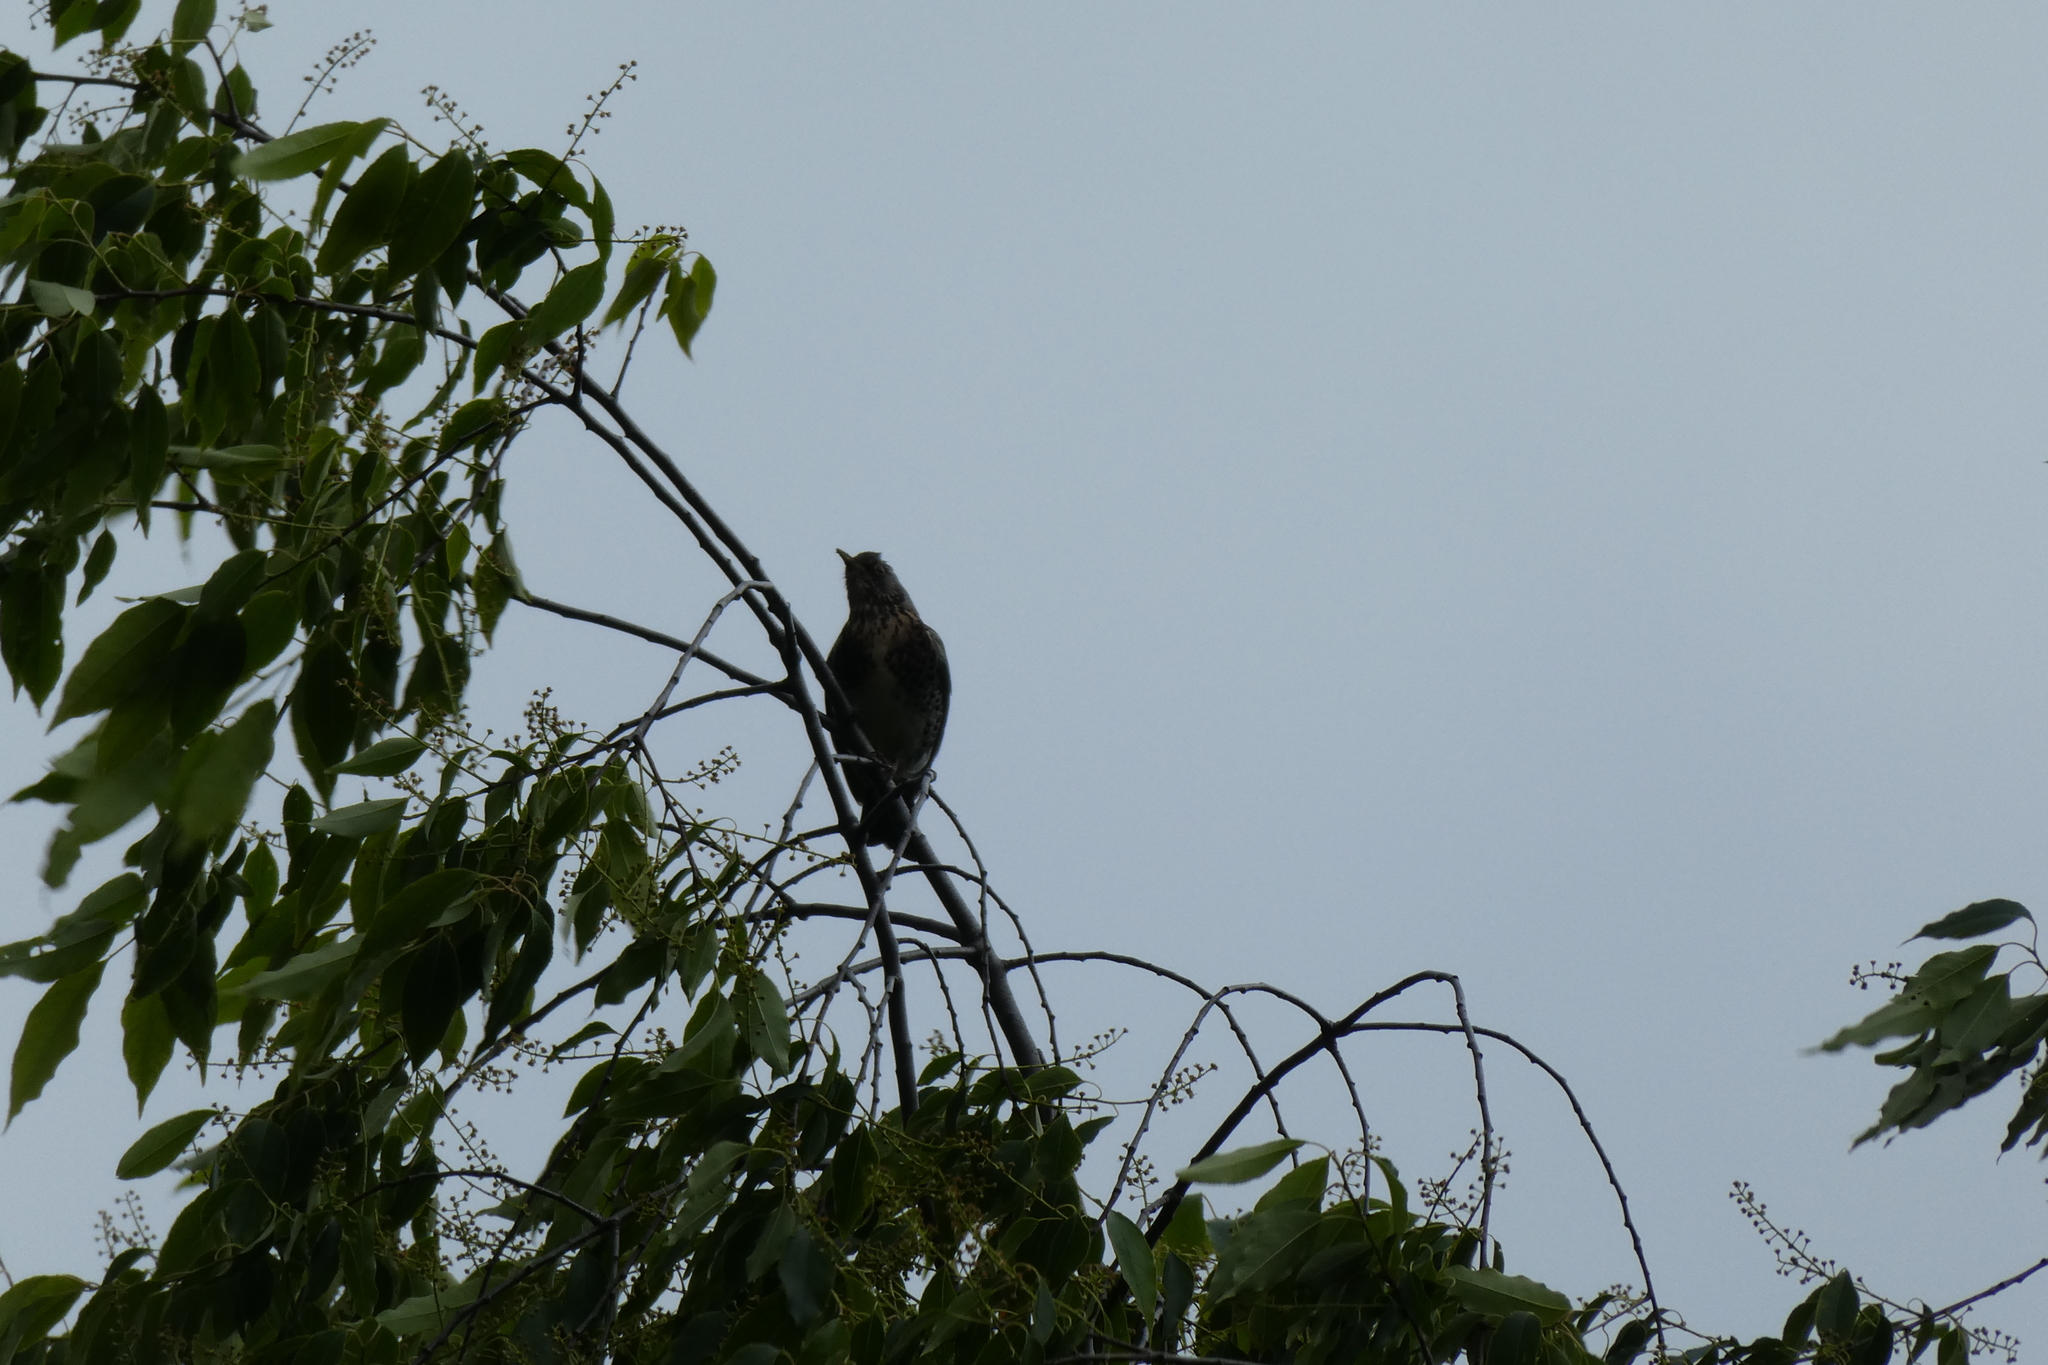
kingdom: Animalia
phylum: Chordata
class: Aves
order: Passeriformes
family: Turdidae
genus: Turdus
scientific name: Turdus pilaris
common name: Fieldfare
